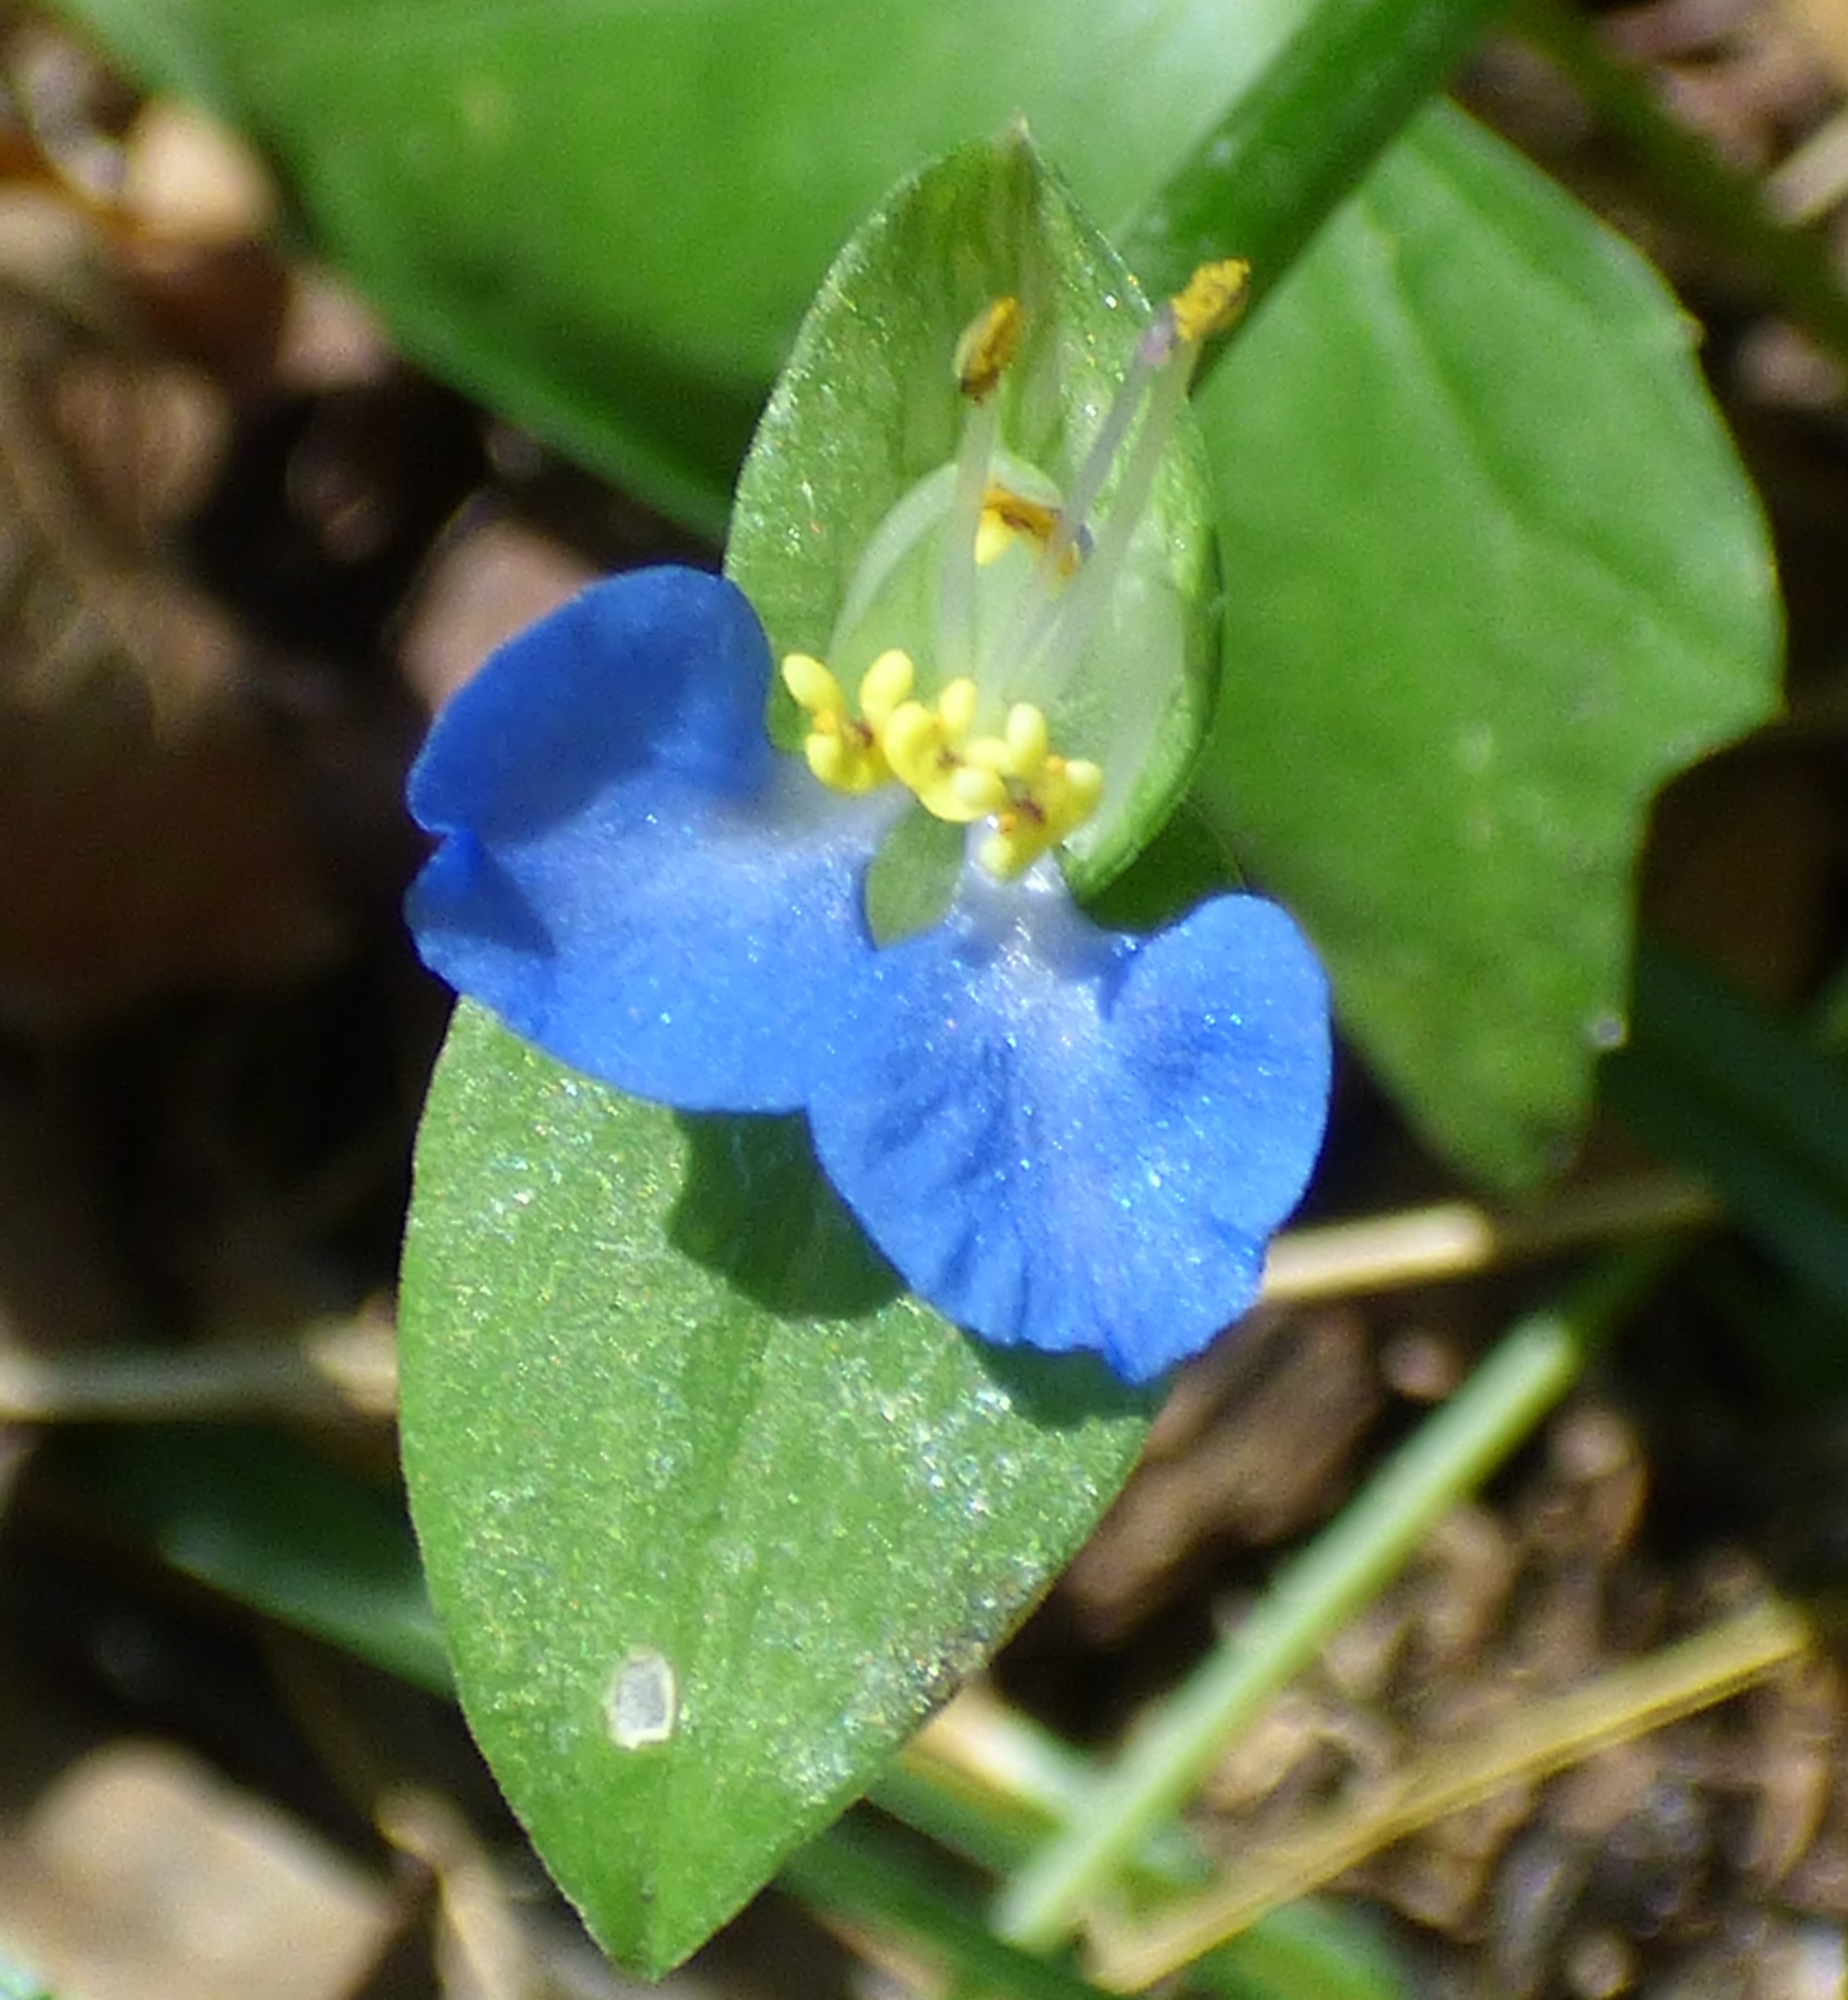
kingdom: Plantae
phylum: Tracheophyta
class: Liliopsida
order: Commelinales
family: Commelinaceae
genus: Commelina
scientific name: Commelina communis
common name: Asiatic dayflower
